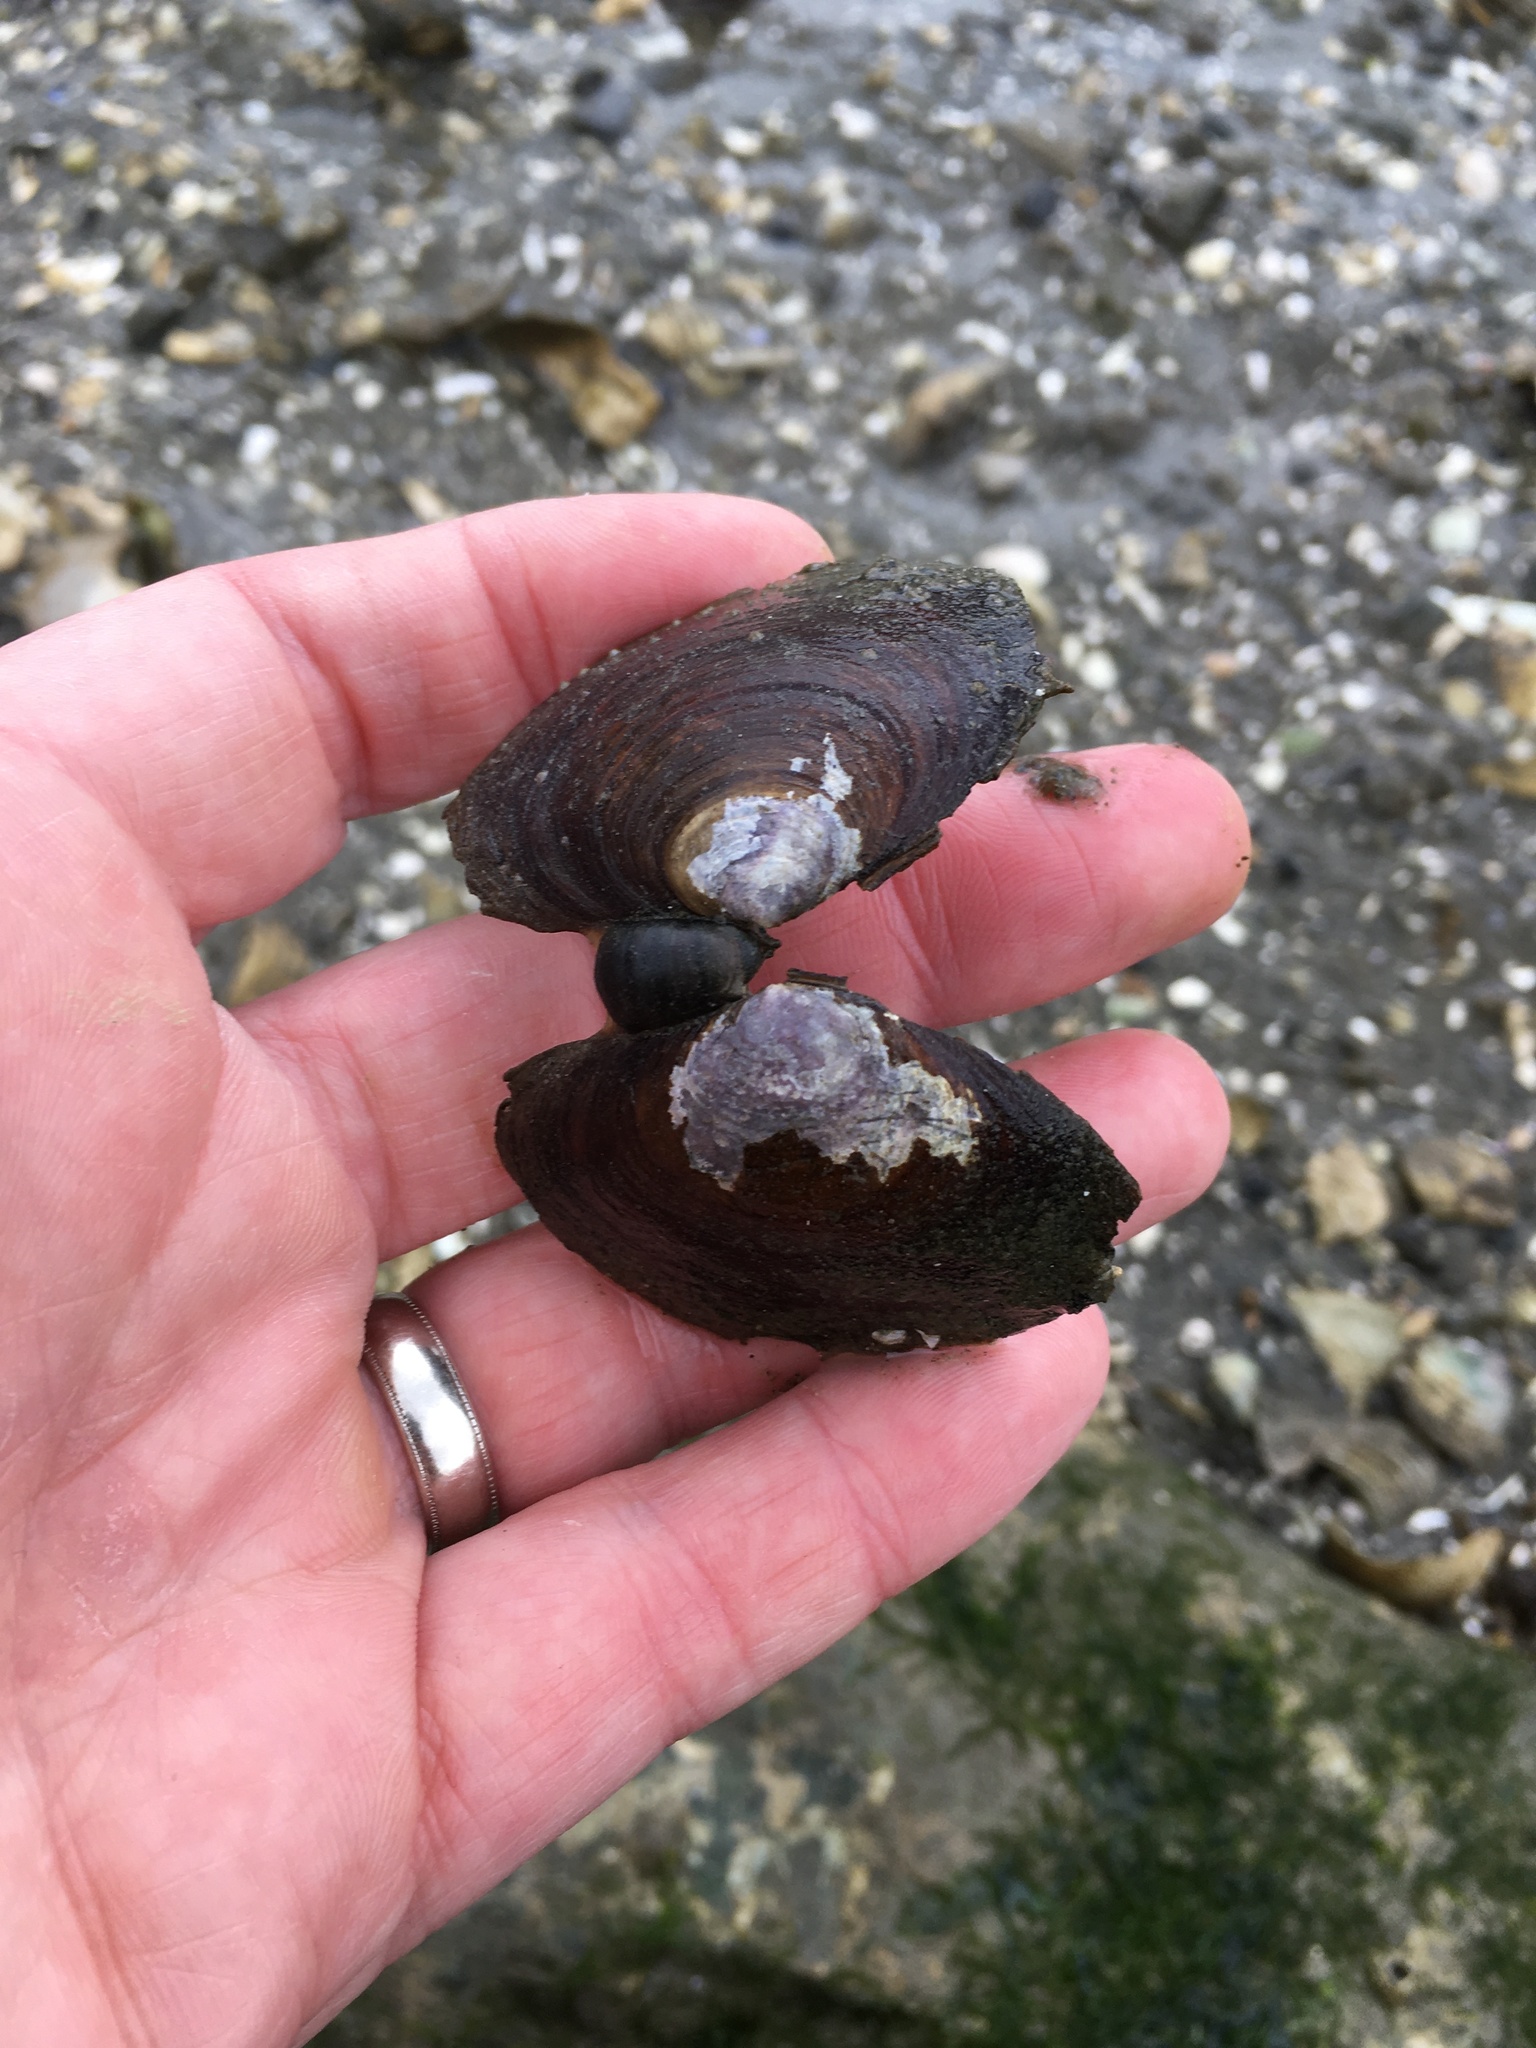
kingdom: Animalia
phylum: Mollusca
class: Bivalvia
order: Cardiida
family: Psammobiidae
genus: Nuttallia
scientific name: Nuttallia obscurata
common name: Purple mahogany-clam
